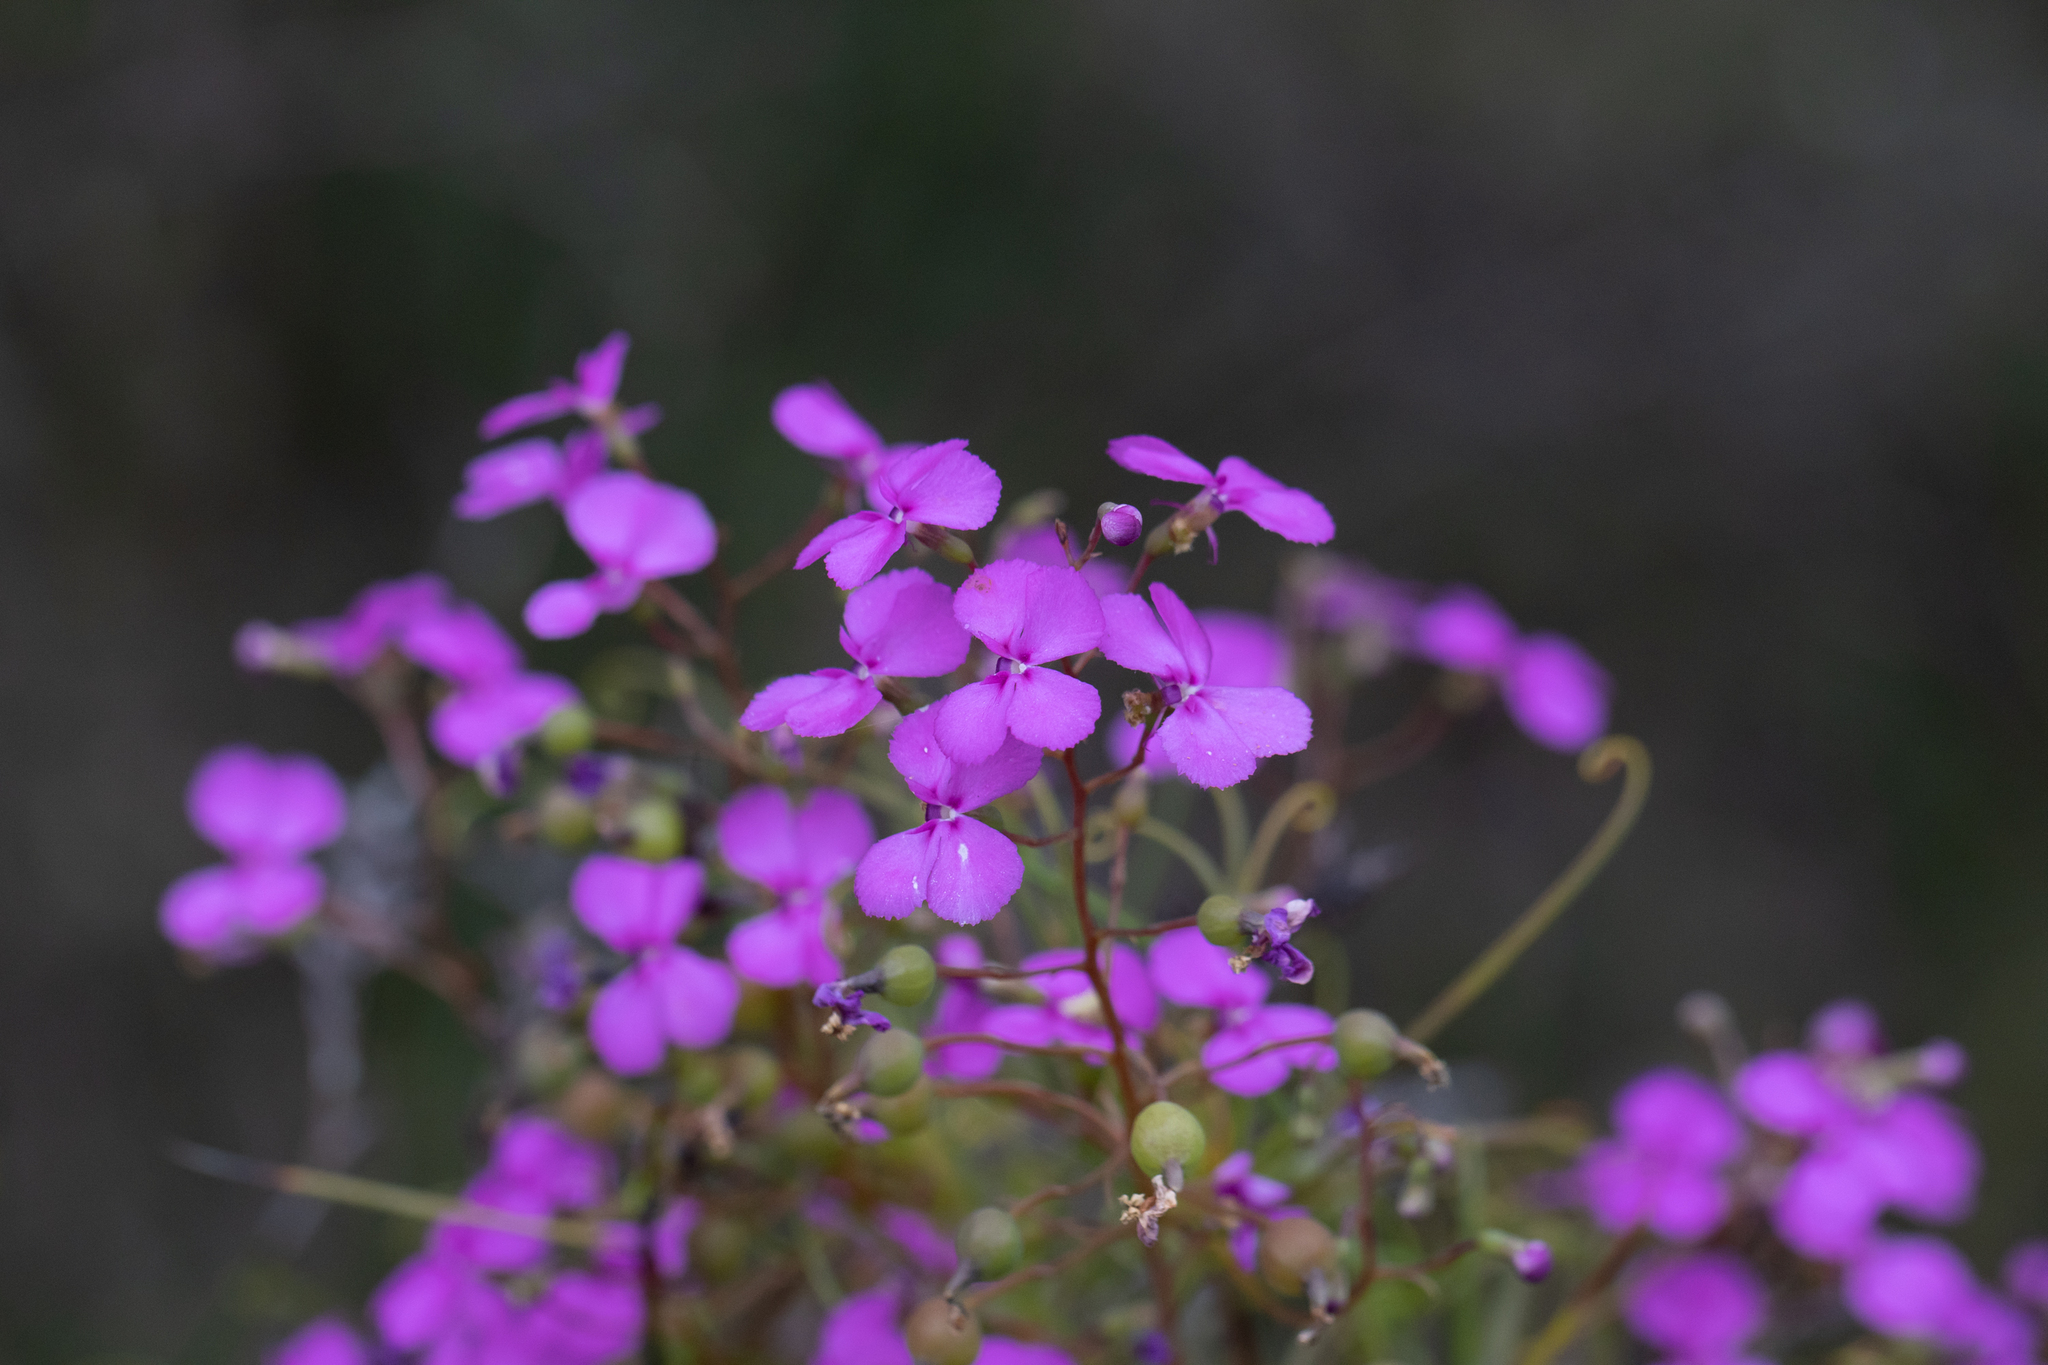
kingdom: Plantae
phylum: Tracheophyta
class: Magnoliopsida
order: Asterales
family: Stylidiaceae
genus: Stylidium
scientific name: Stylidium scandens
